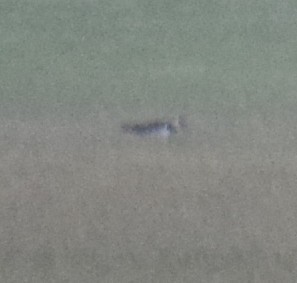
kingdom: Animalia
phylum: Chordata
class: Aves
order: Charadriiformes
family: Charadriidae
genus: Vanellus
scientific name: Vanellus vanellus
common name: Northern lapwing
